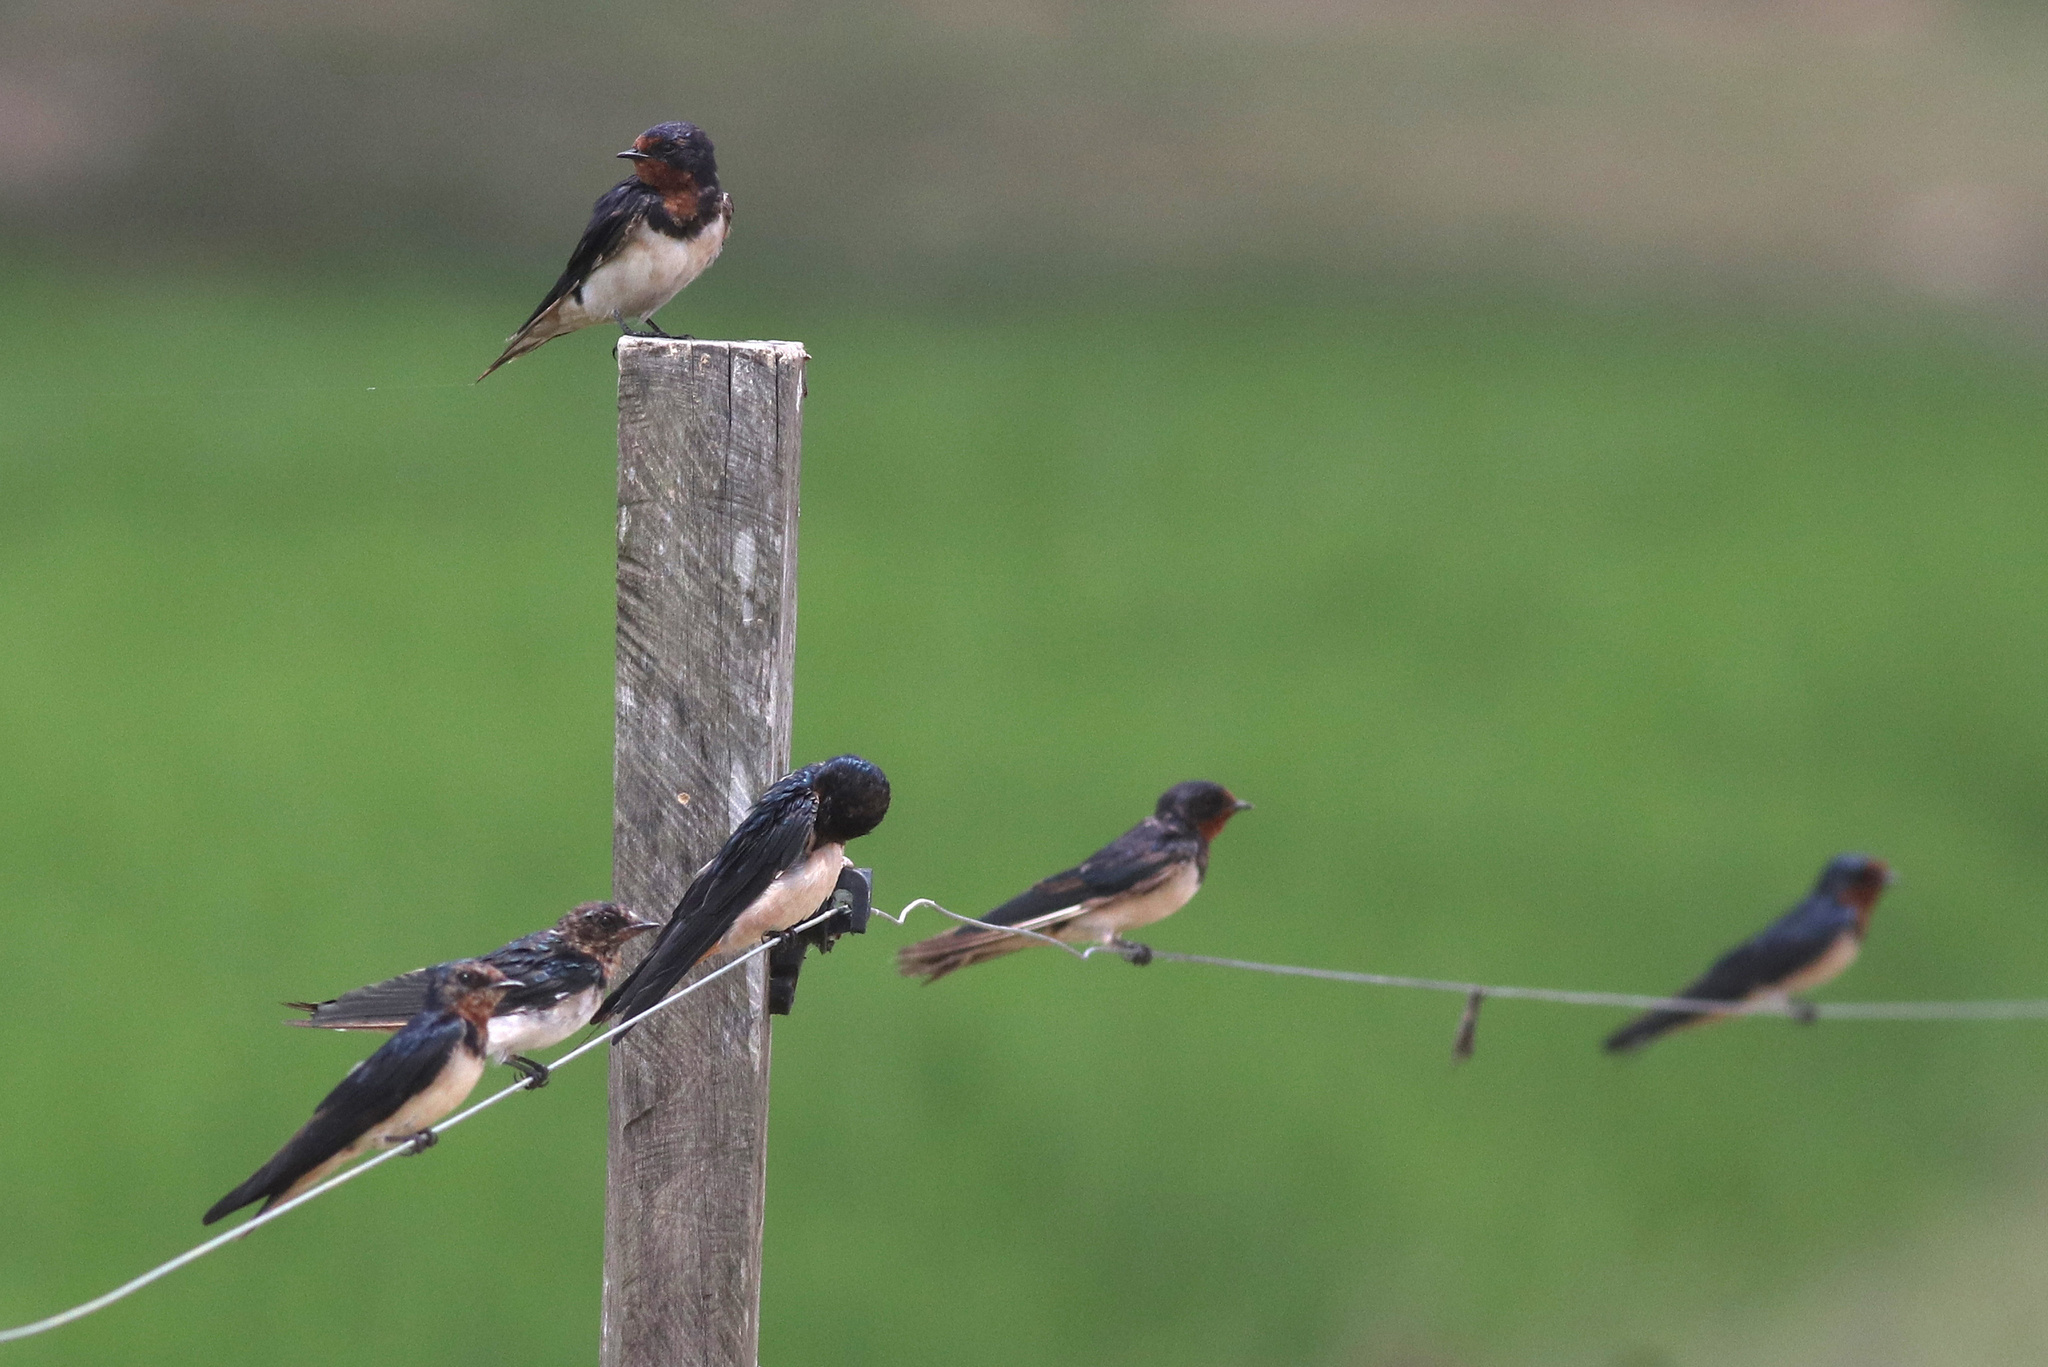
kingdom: Animalia
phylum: Chordata
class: Aves
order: Passeriformes
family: Hirundinidae
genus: Hirundo
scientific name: Hirundo rustica
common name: Barn swallow
